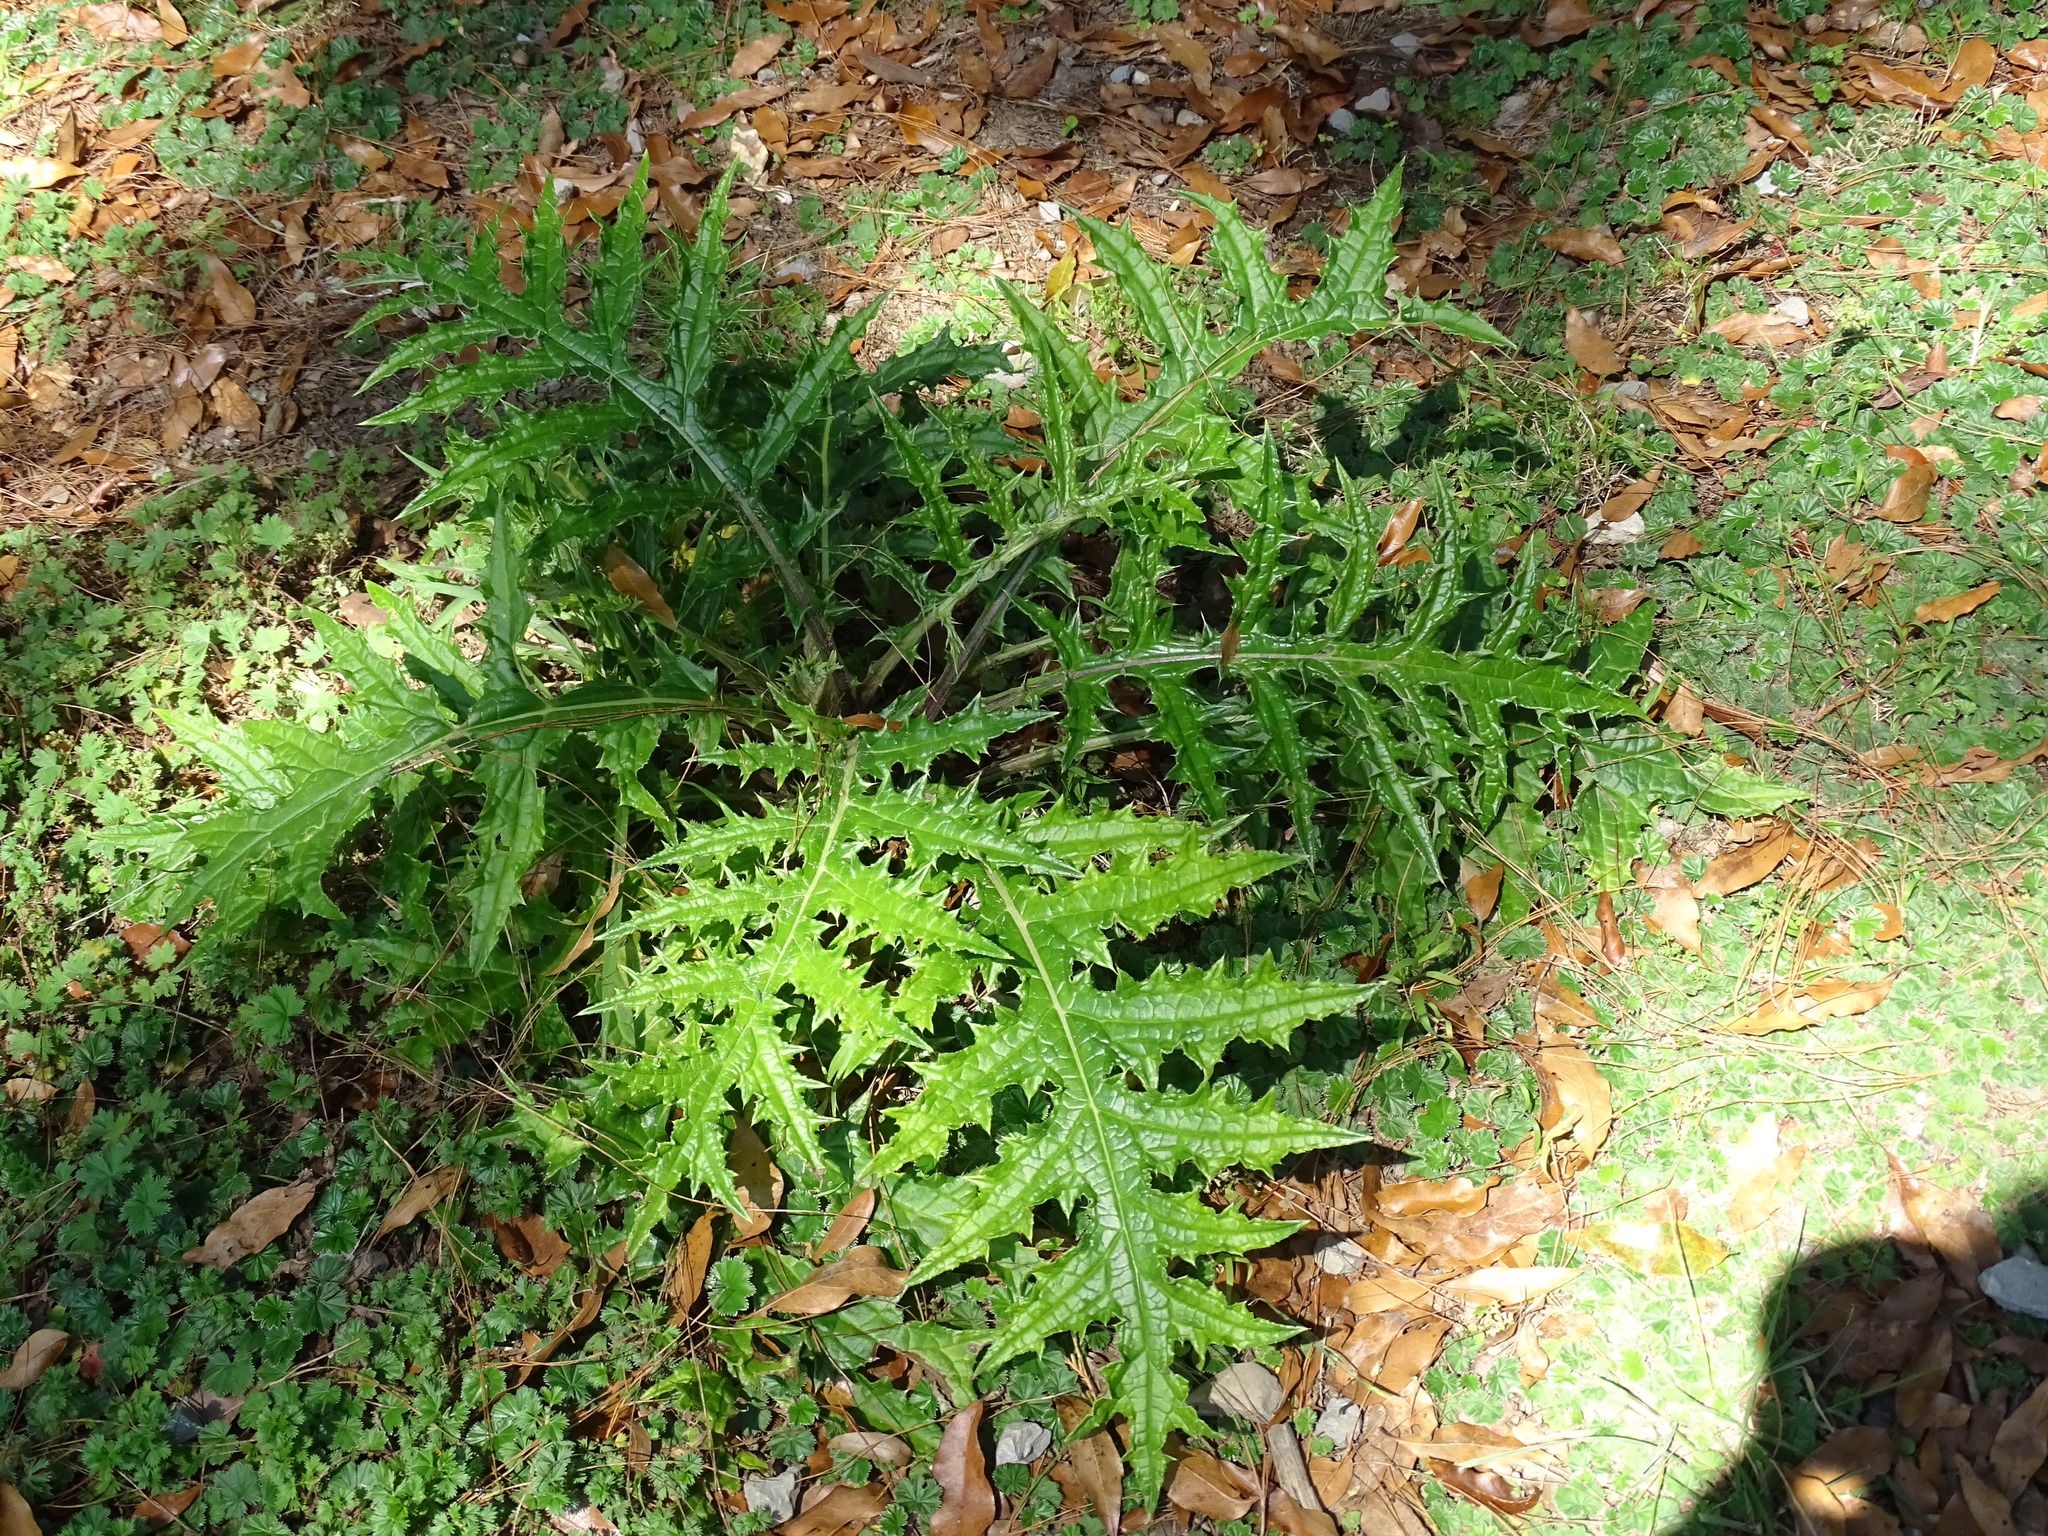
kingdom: Plantae
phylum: Tracheophyta
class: Magnoliopsida
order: Asterales
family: Asteraceae
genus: Cirsium
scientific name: Cirsium ehrenbergii
